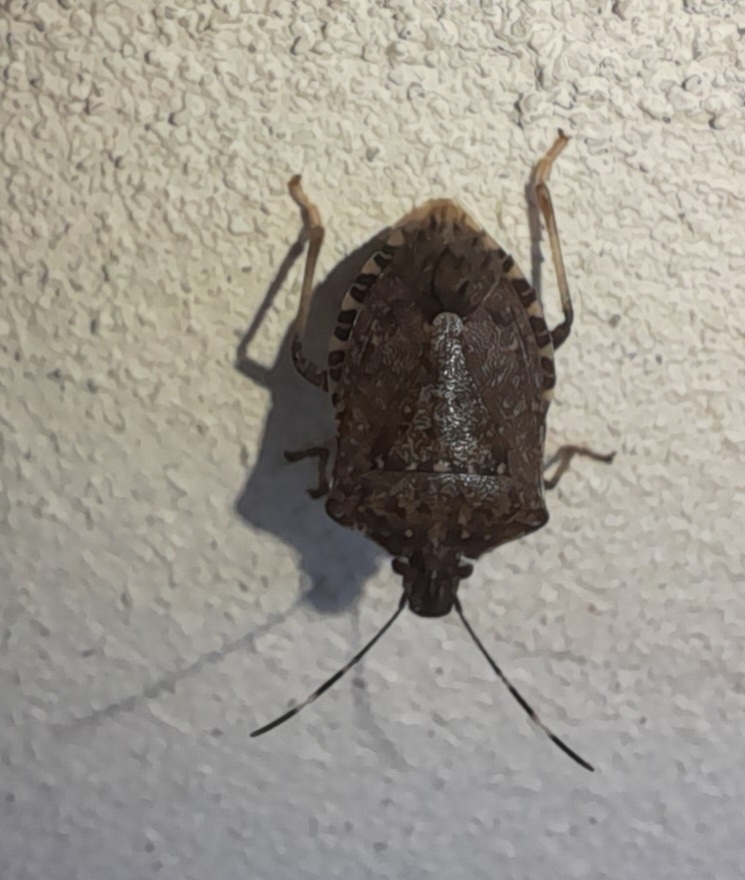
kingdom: Animalia
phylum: Arthropoda
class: Insecta
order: Hemiptera
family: Pentatomidae
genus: Halyomorpha
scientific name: Halyomorpha halys
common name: Brown marmorated stink bug
